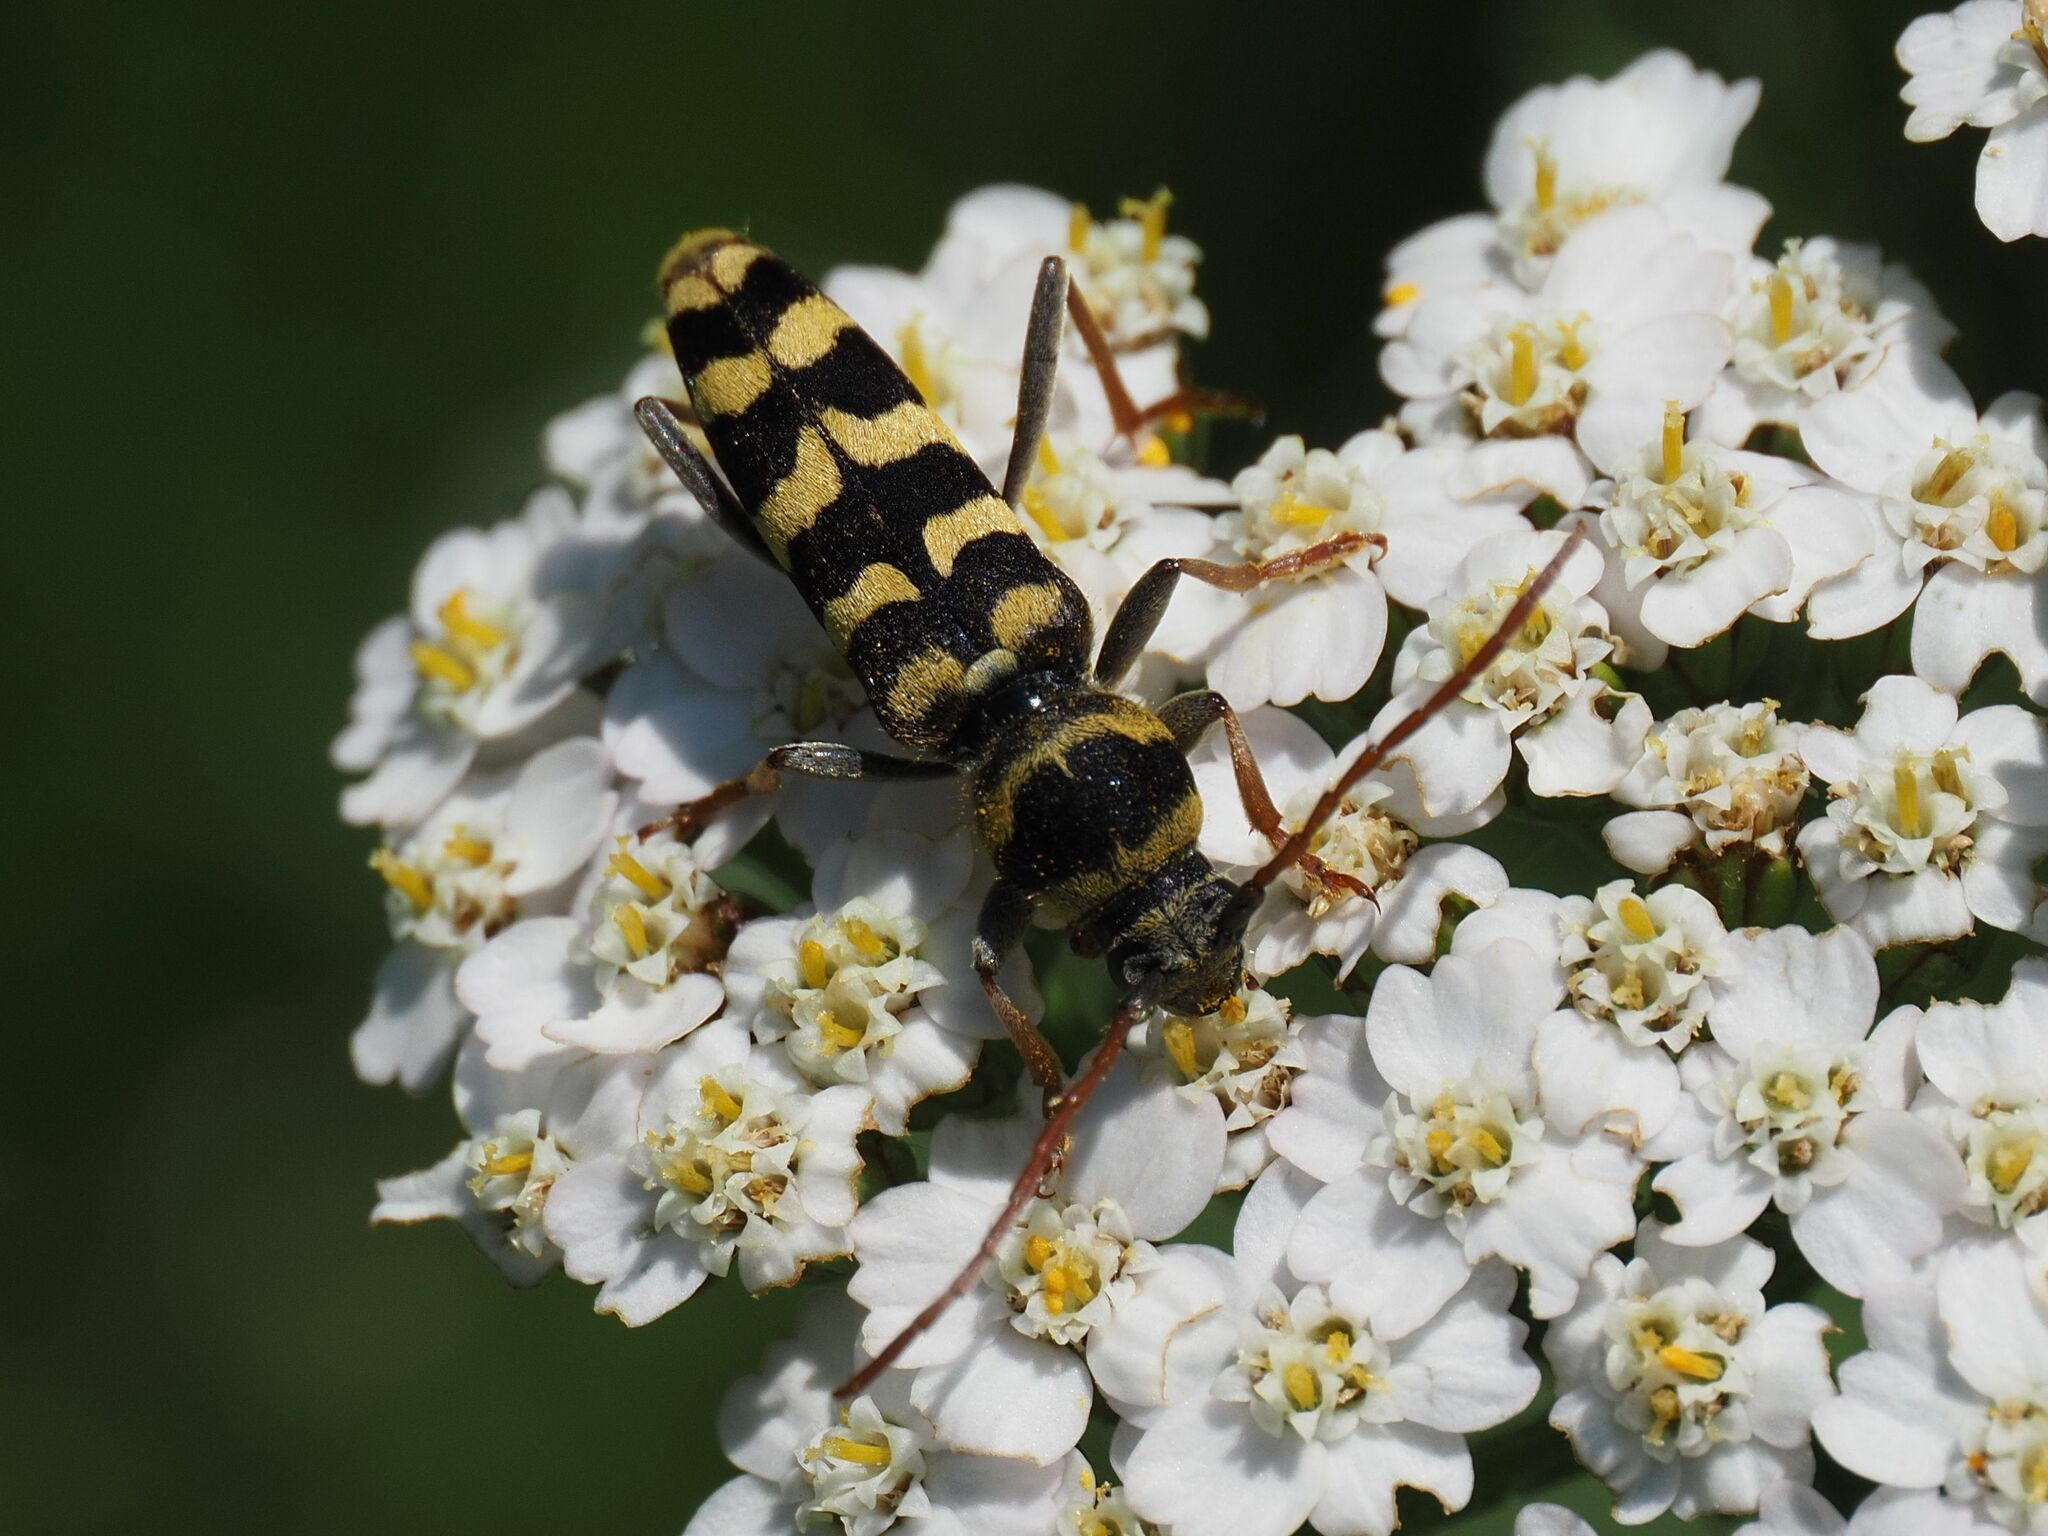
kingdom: Animalia
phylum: Arthropoda
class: Insecta
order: Coleoptera
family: Cerambycidae
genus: Plagionotus
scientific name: Plagionotus floralis
